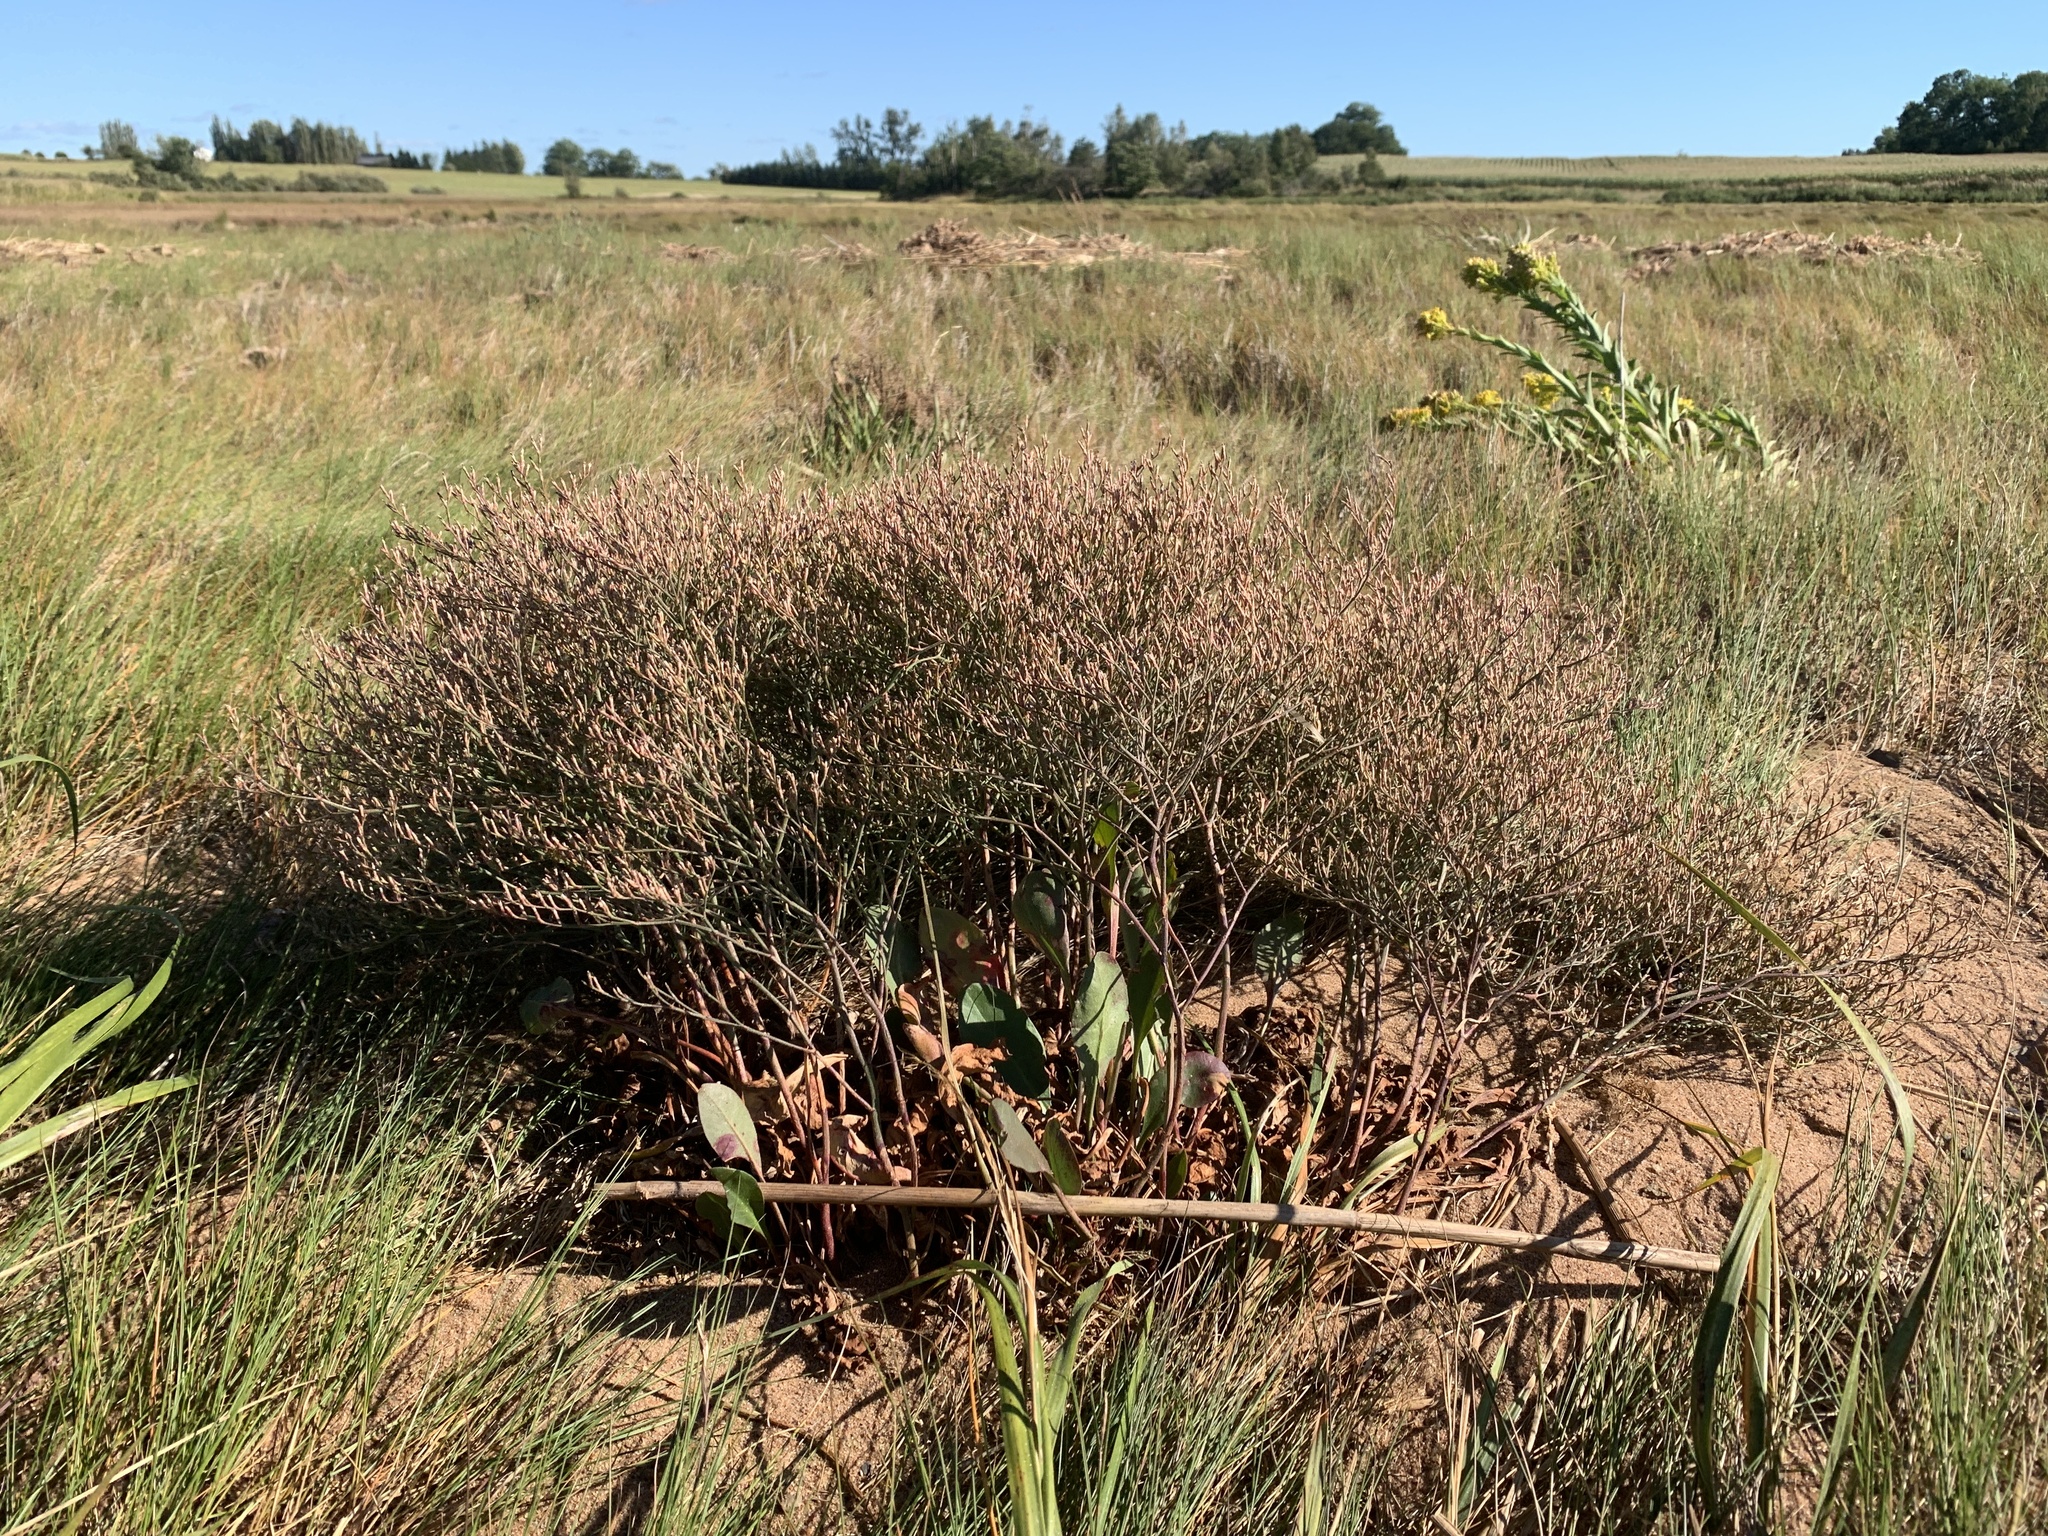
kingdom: Plantae
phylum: Tracheophyta
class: Magnoliopsida
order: Caryophyllales
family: Plumbaginaceae
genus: Limonium
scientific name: Limonium carolinianum
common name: Carolina sea lavender
